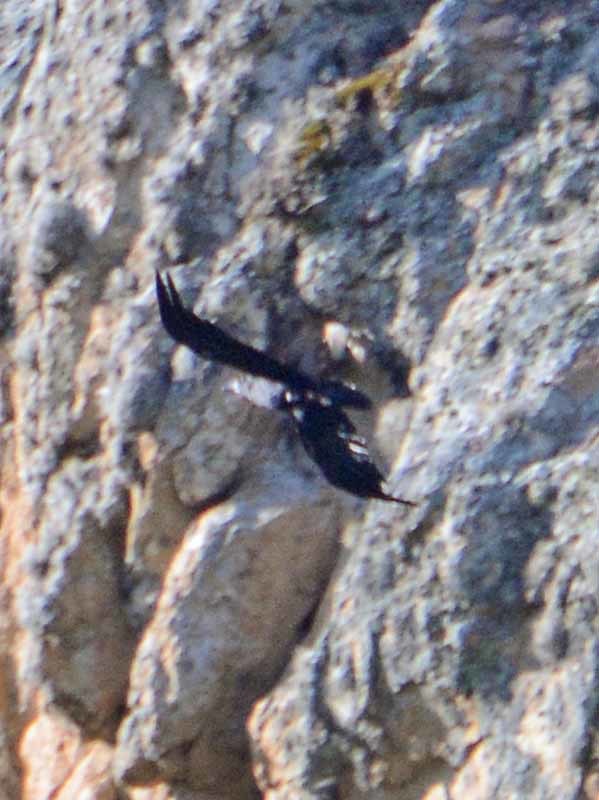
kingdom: Animalia
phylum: Chordata
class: Aves
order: Passeriformes
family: Corvidae
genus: Corvus
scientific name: Corvus corax
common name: Common raven
